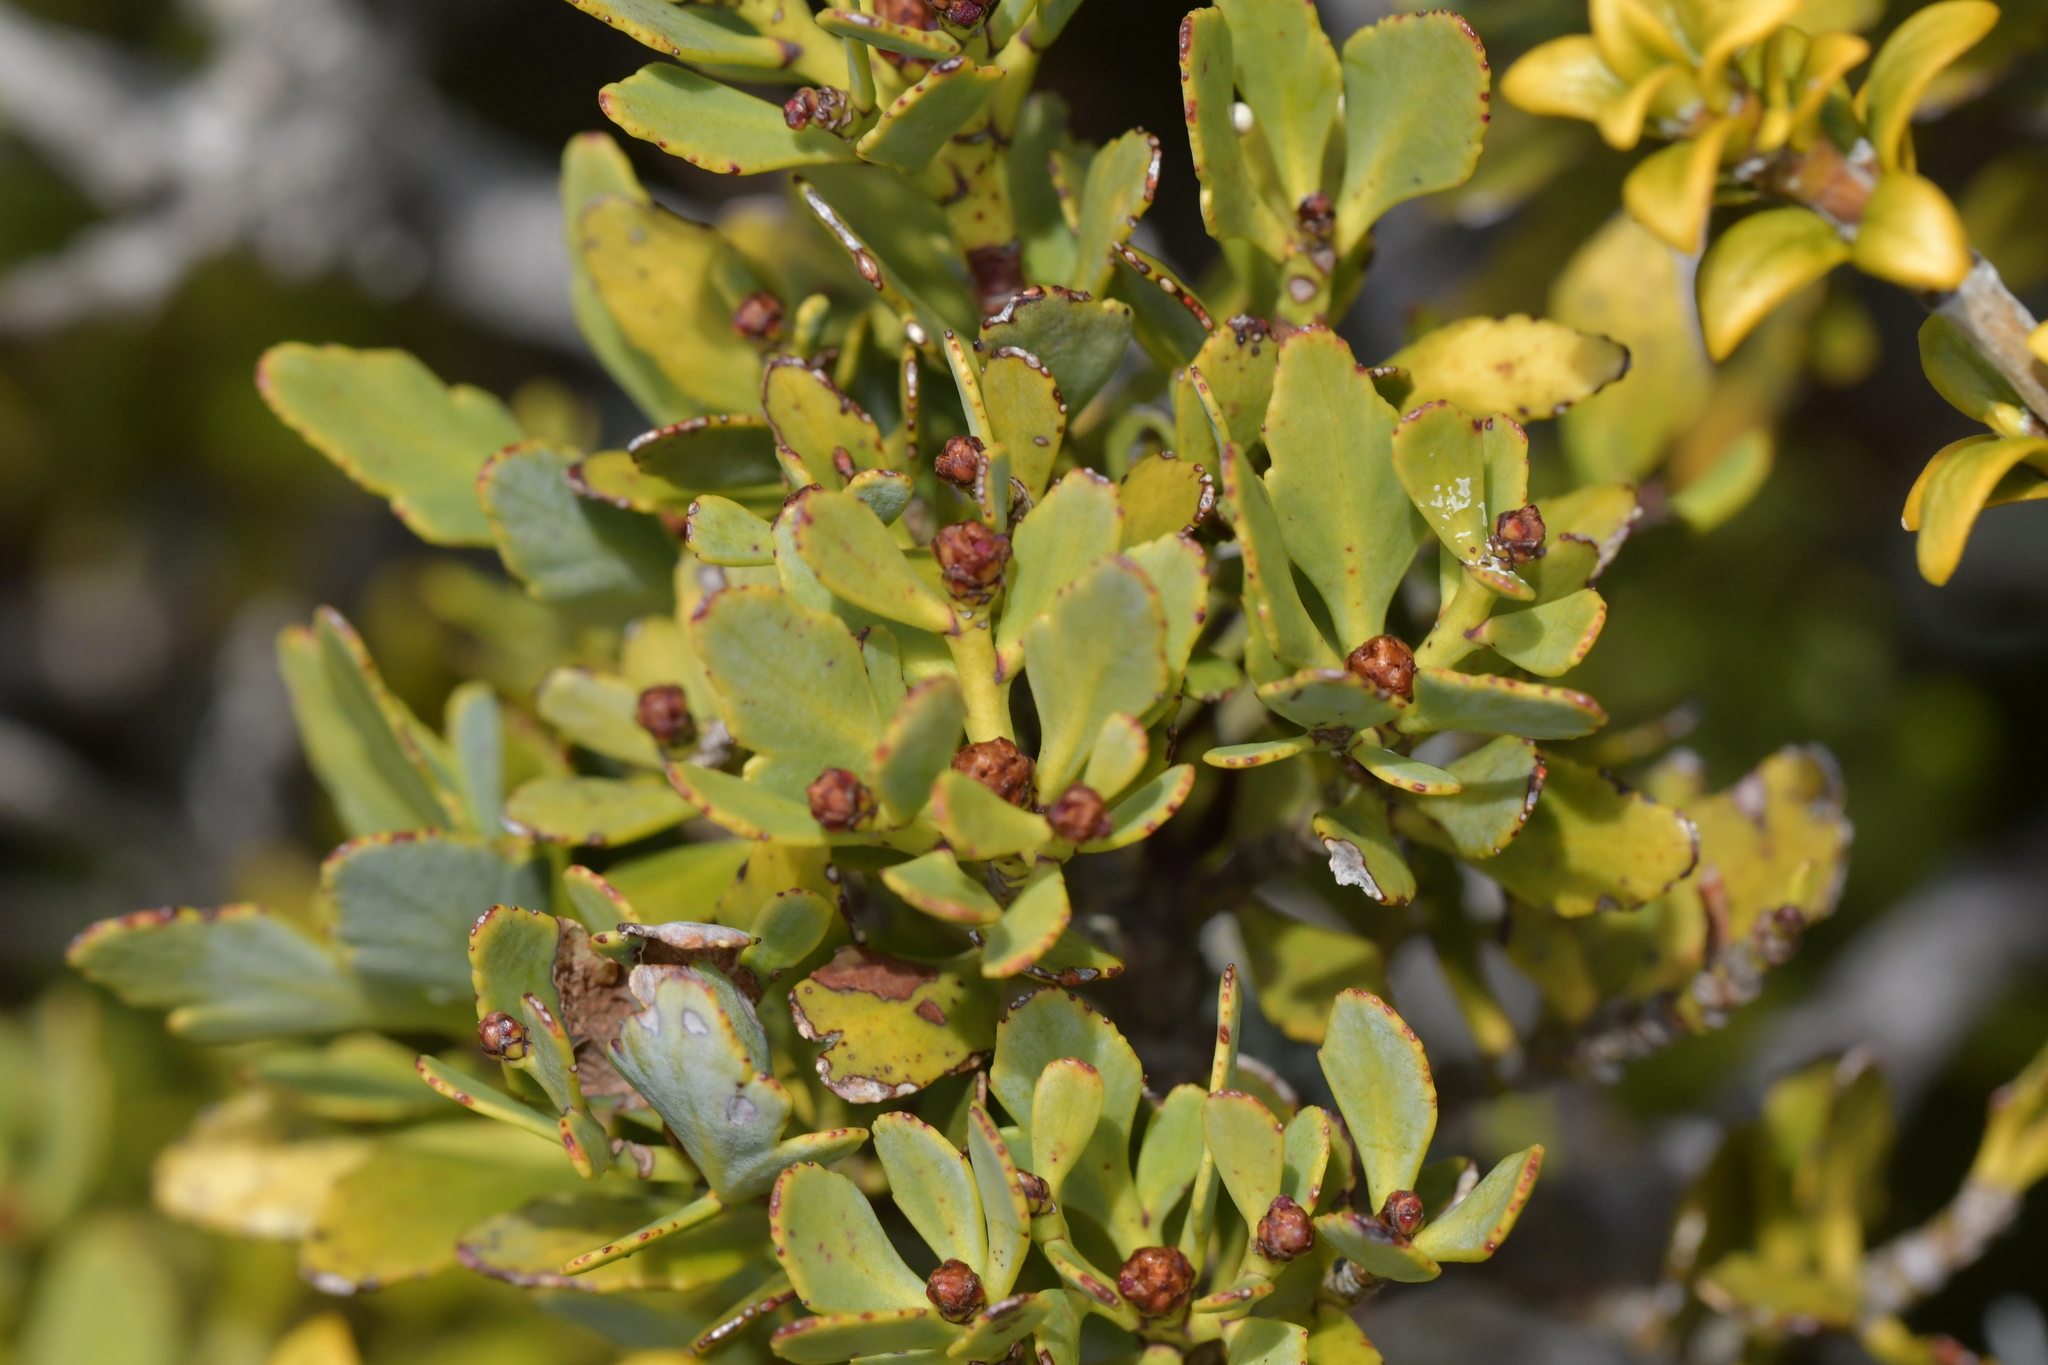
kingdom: Plantae
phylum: Tracheophyta
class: Pinopsida
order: Pinales
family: Phyllocladaceae
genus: Phyllocladus
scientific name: Phyllocladus trichomanoides
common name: Celery pine
